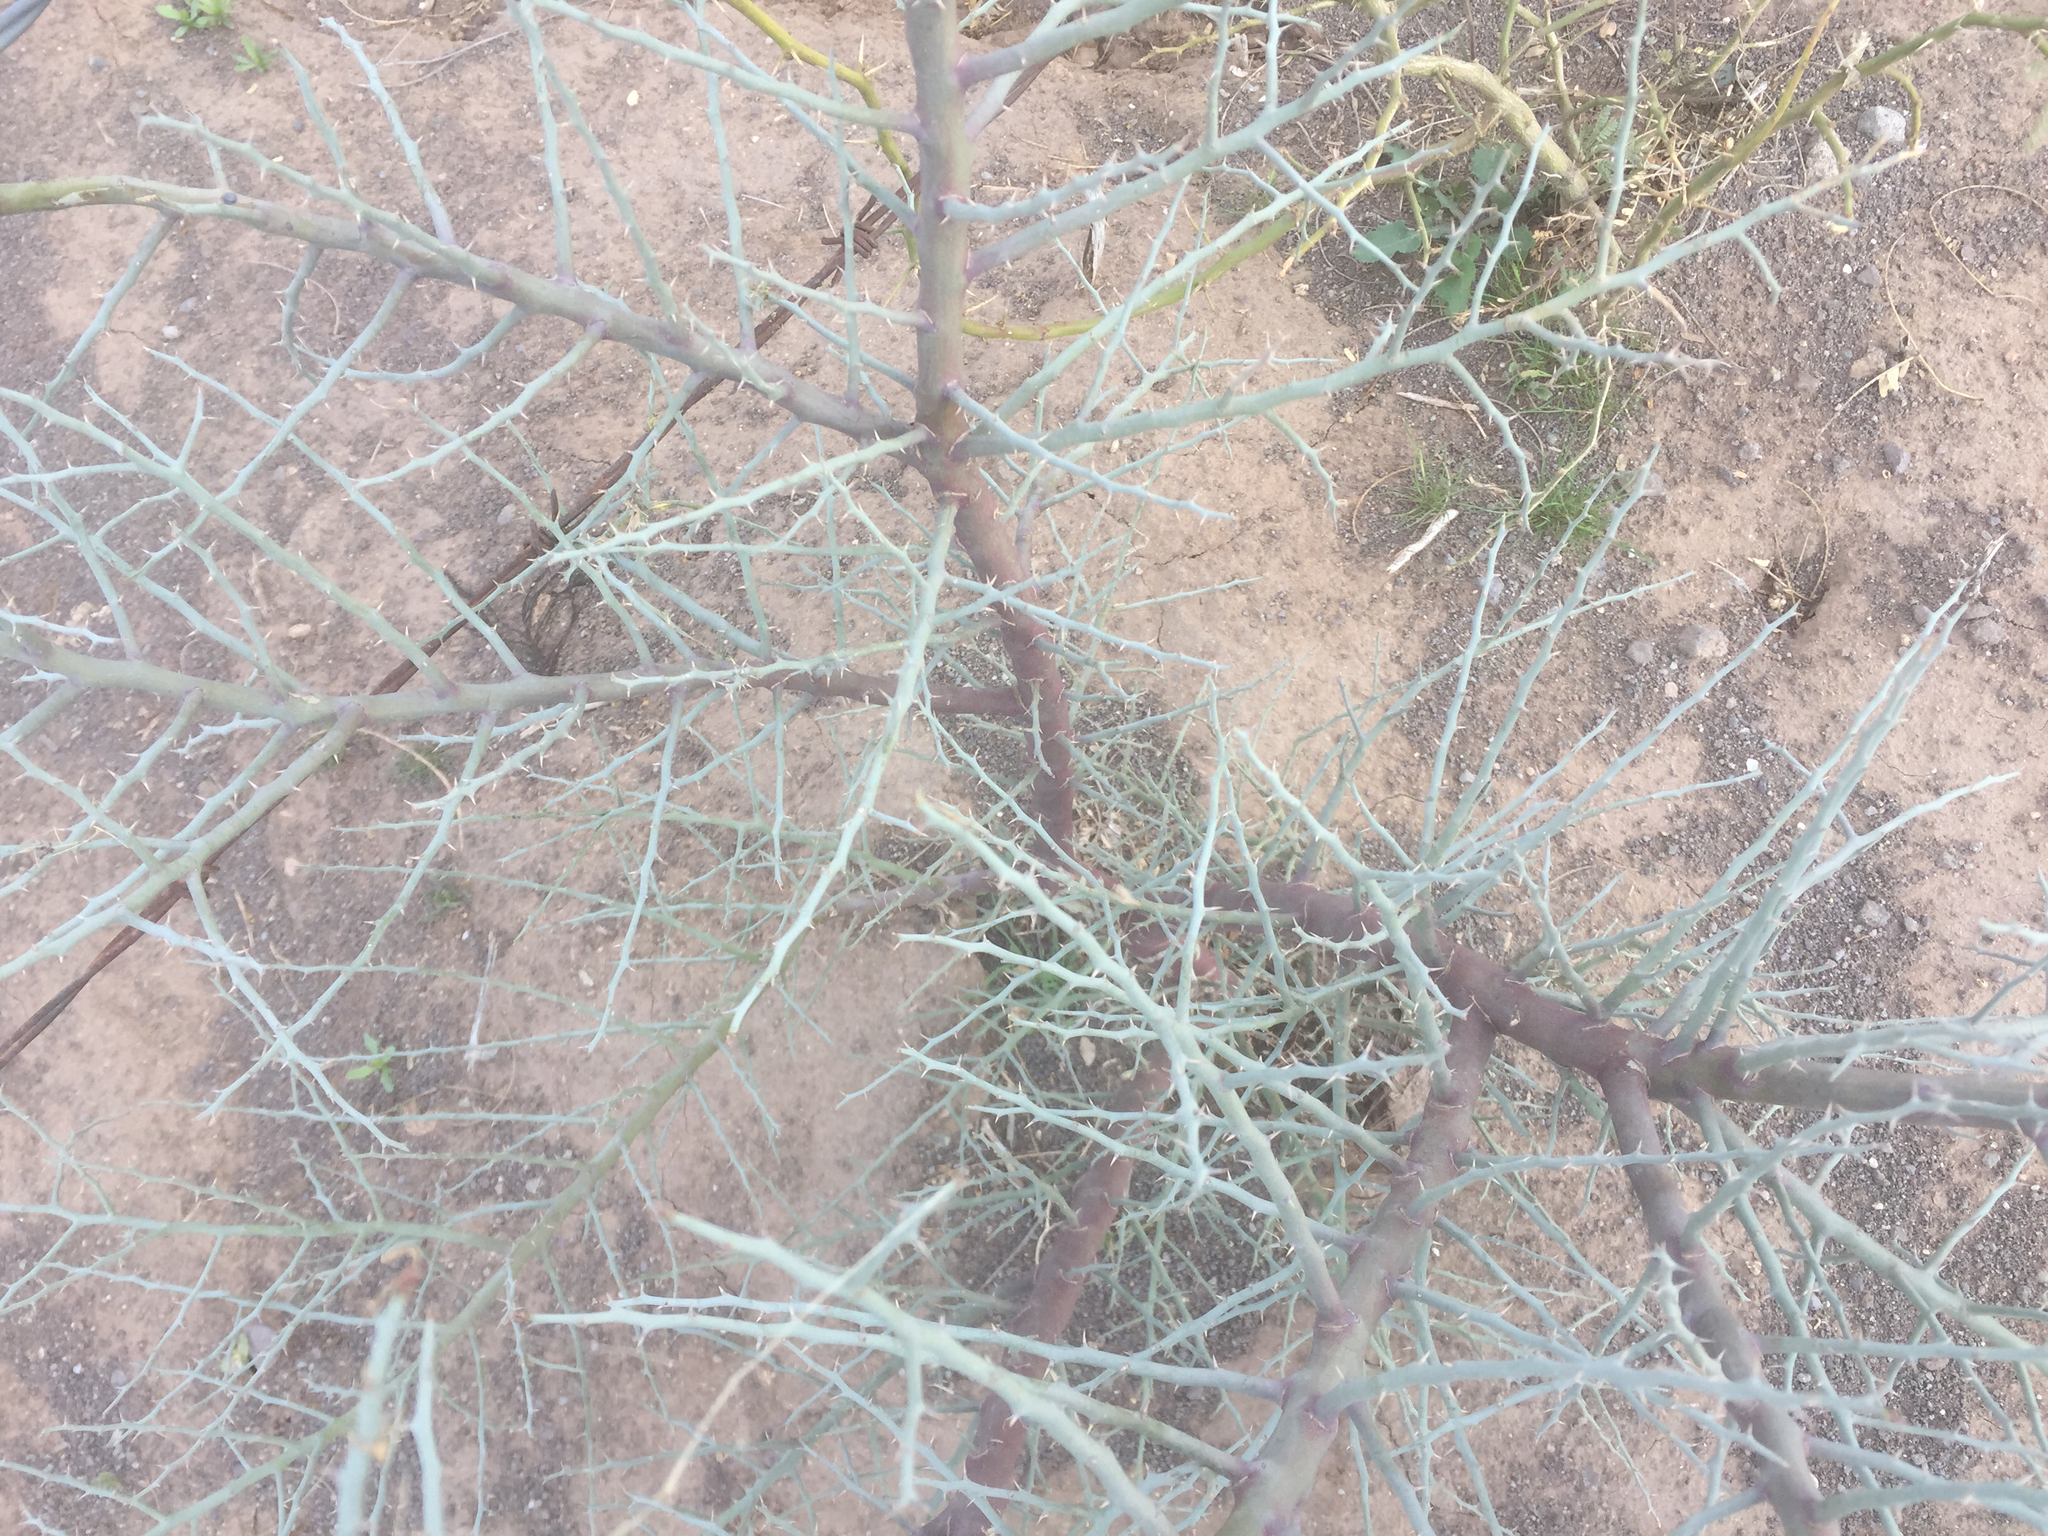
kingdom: Plantae
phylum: Tracheophyta
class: Magnoliopsida
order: Fabales
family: Fabaceae
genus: Parkinsonia
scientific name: Parkinsonia florida
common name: Blue paloverde
